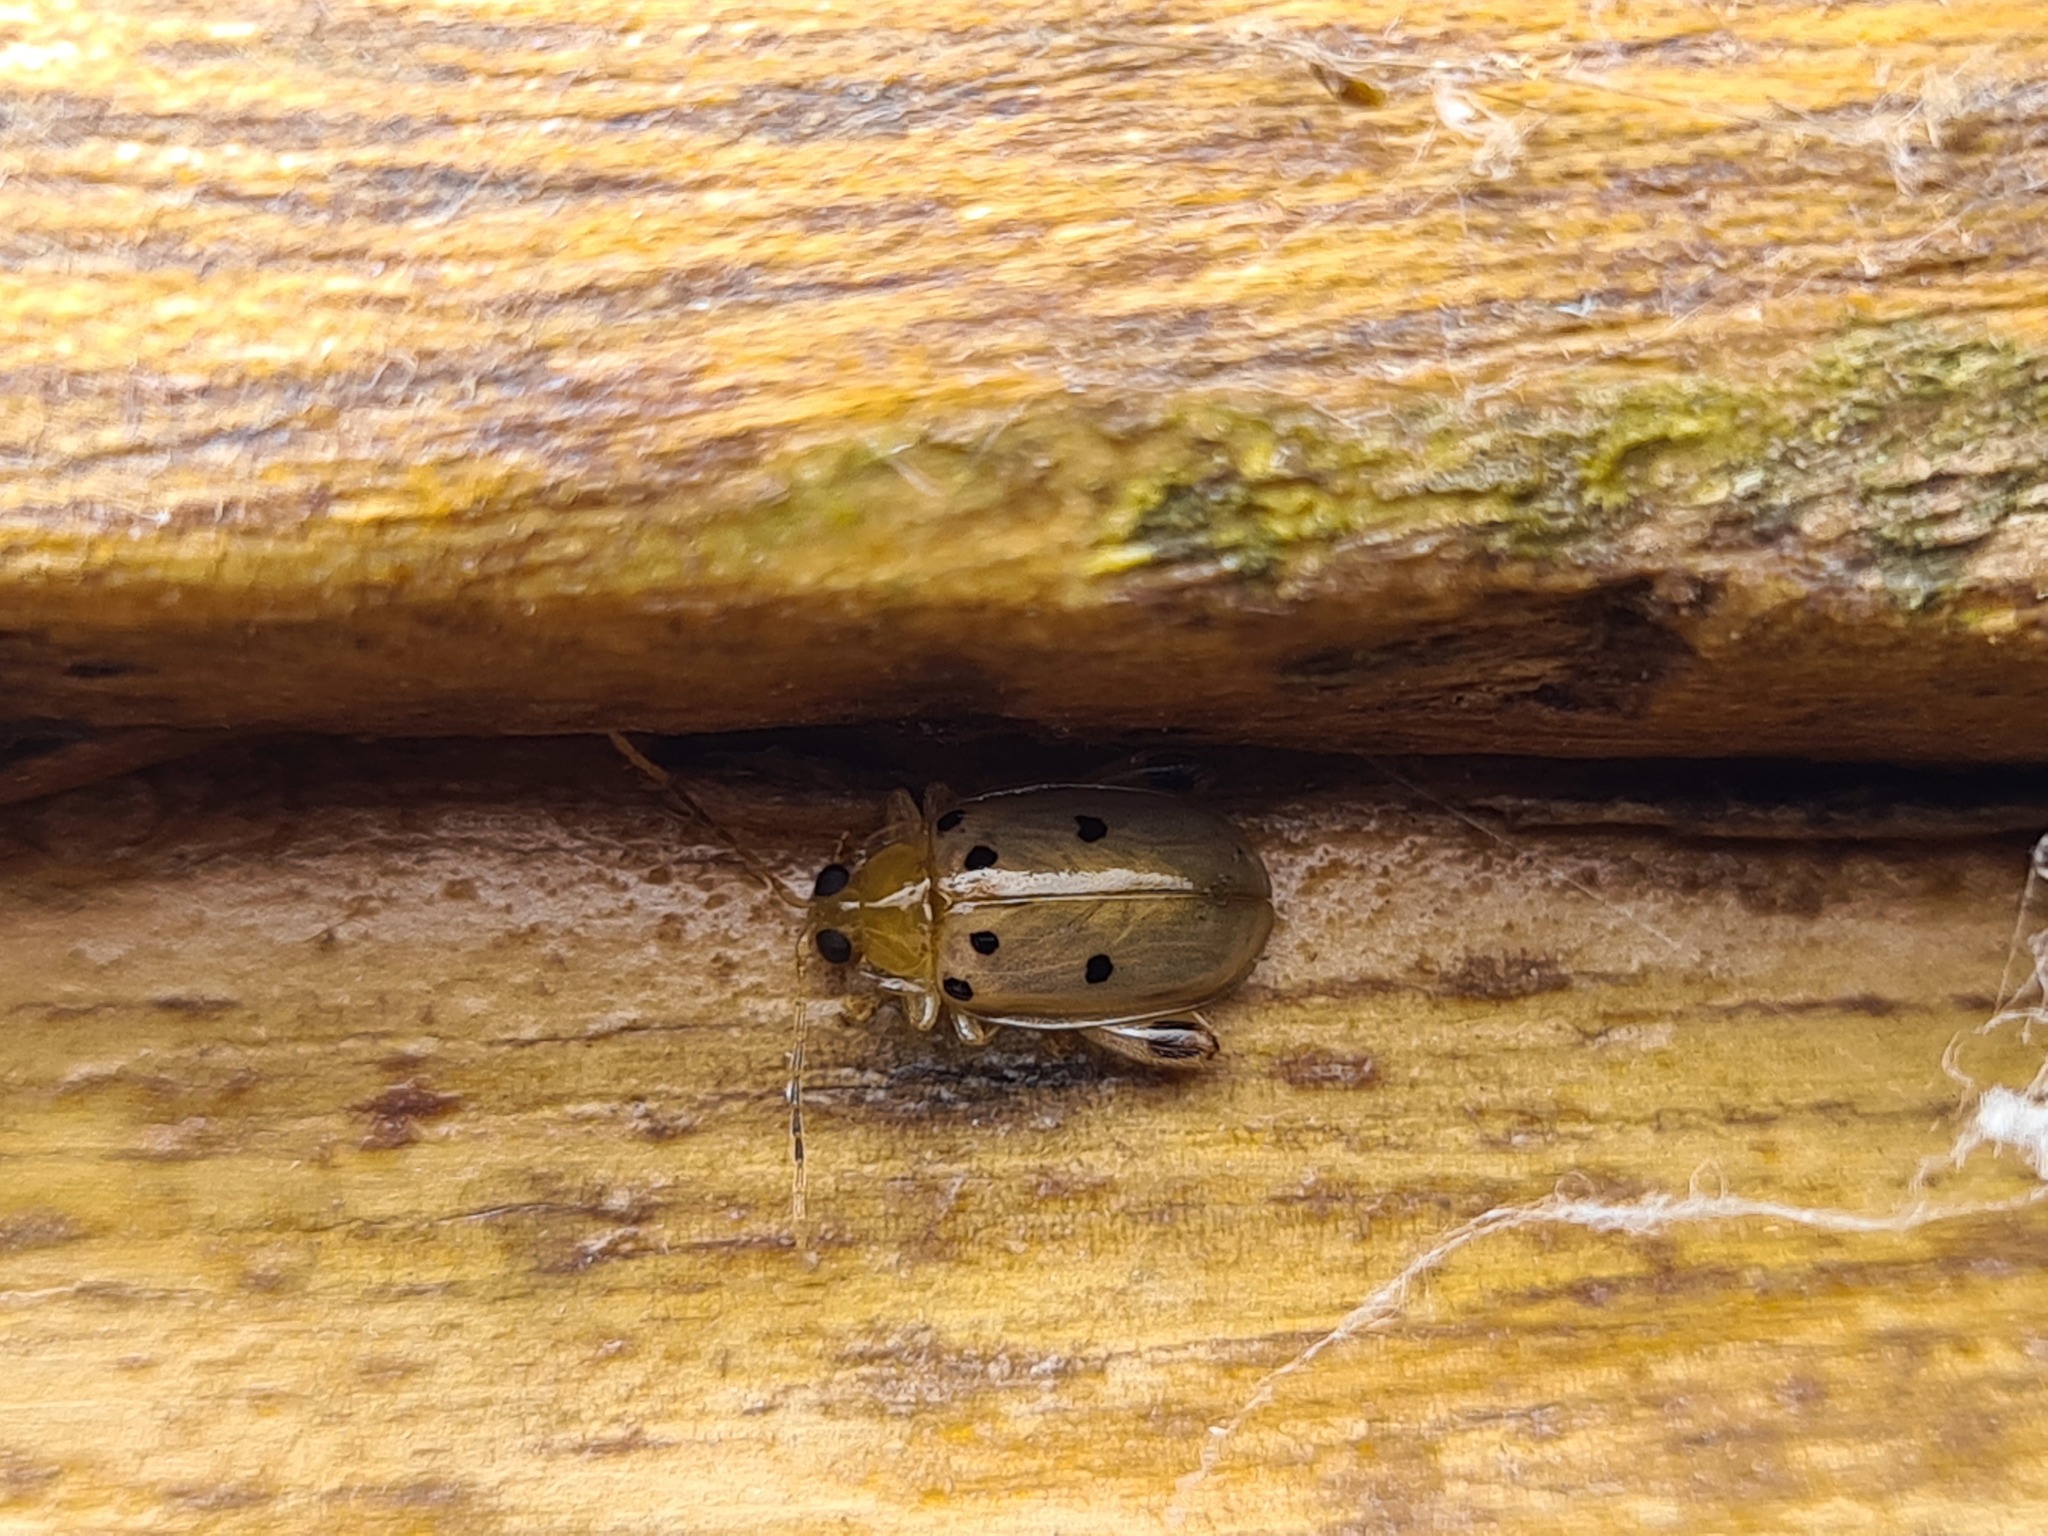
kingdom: Animalia
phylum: Arthropoda
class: Insecta
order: Coleoptera
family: Chrysomelidae
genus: Walterianella
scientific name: Walterianella
